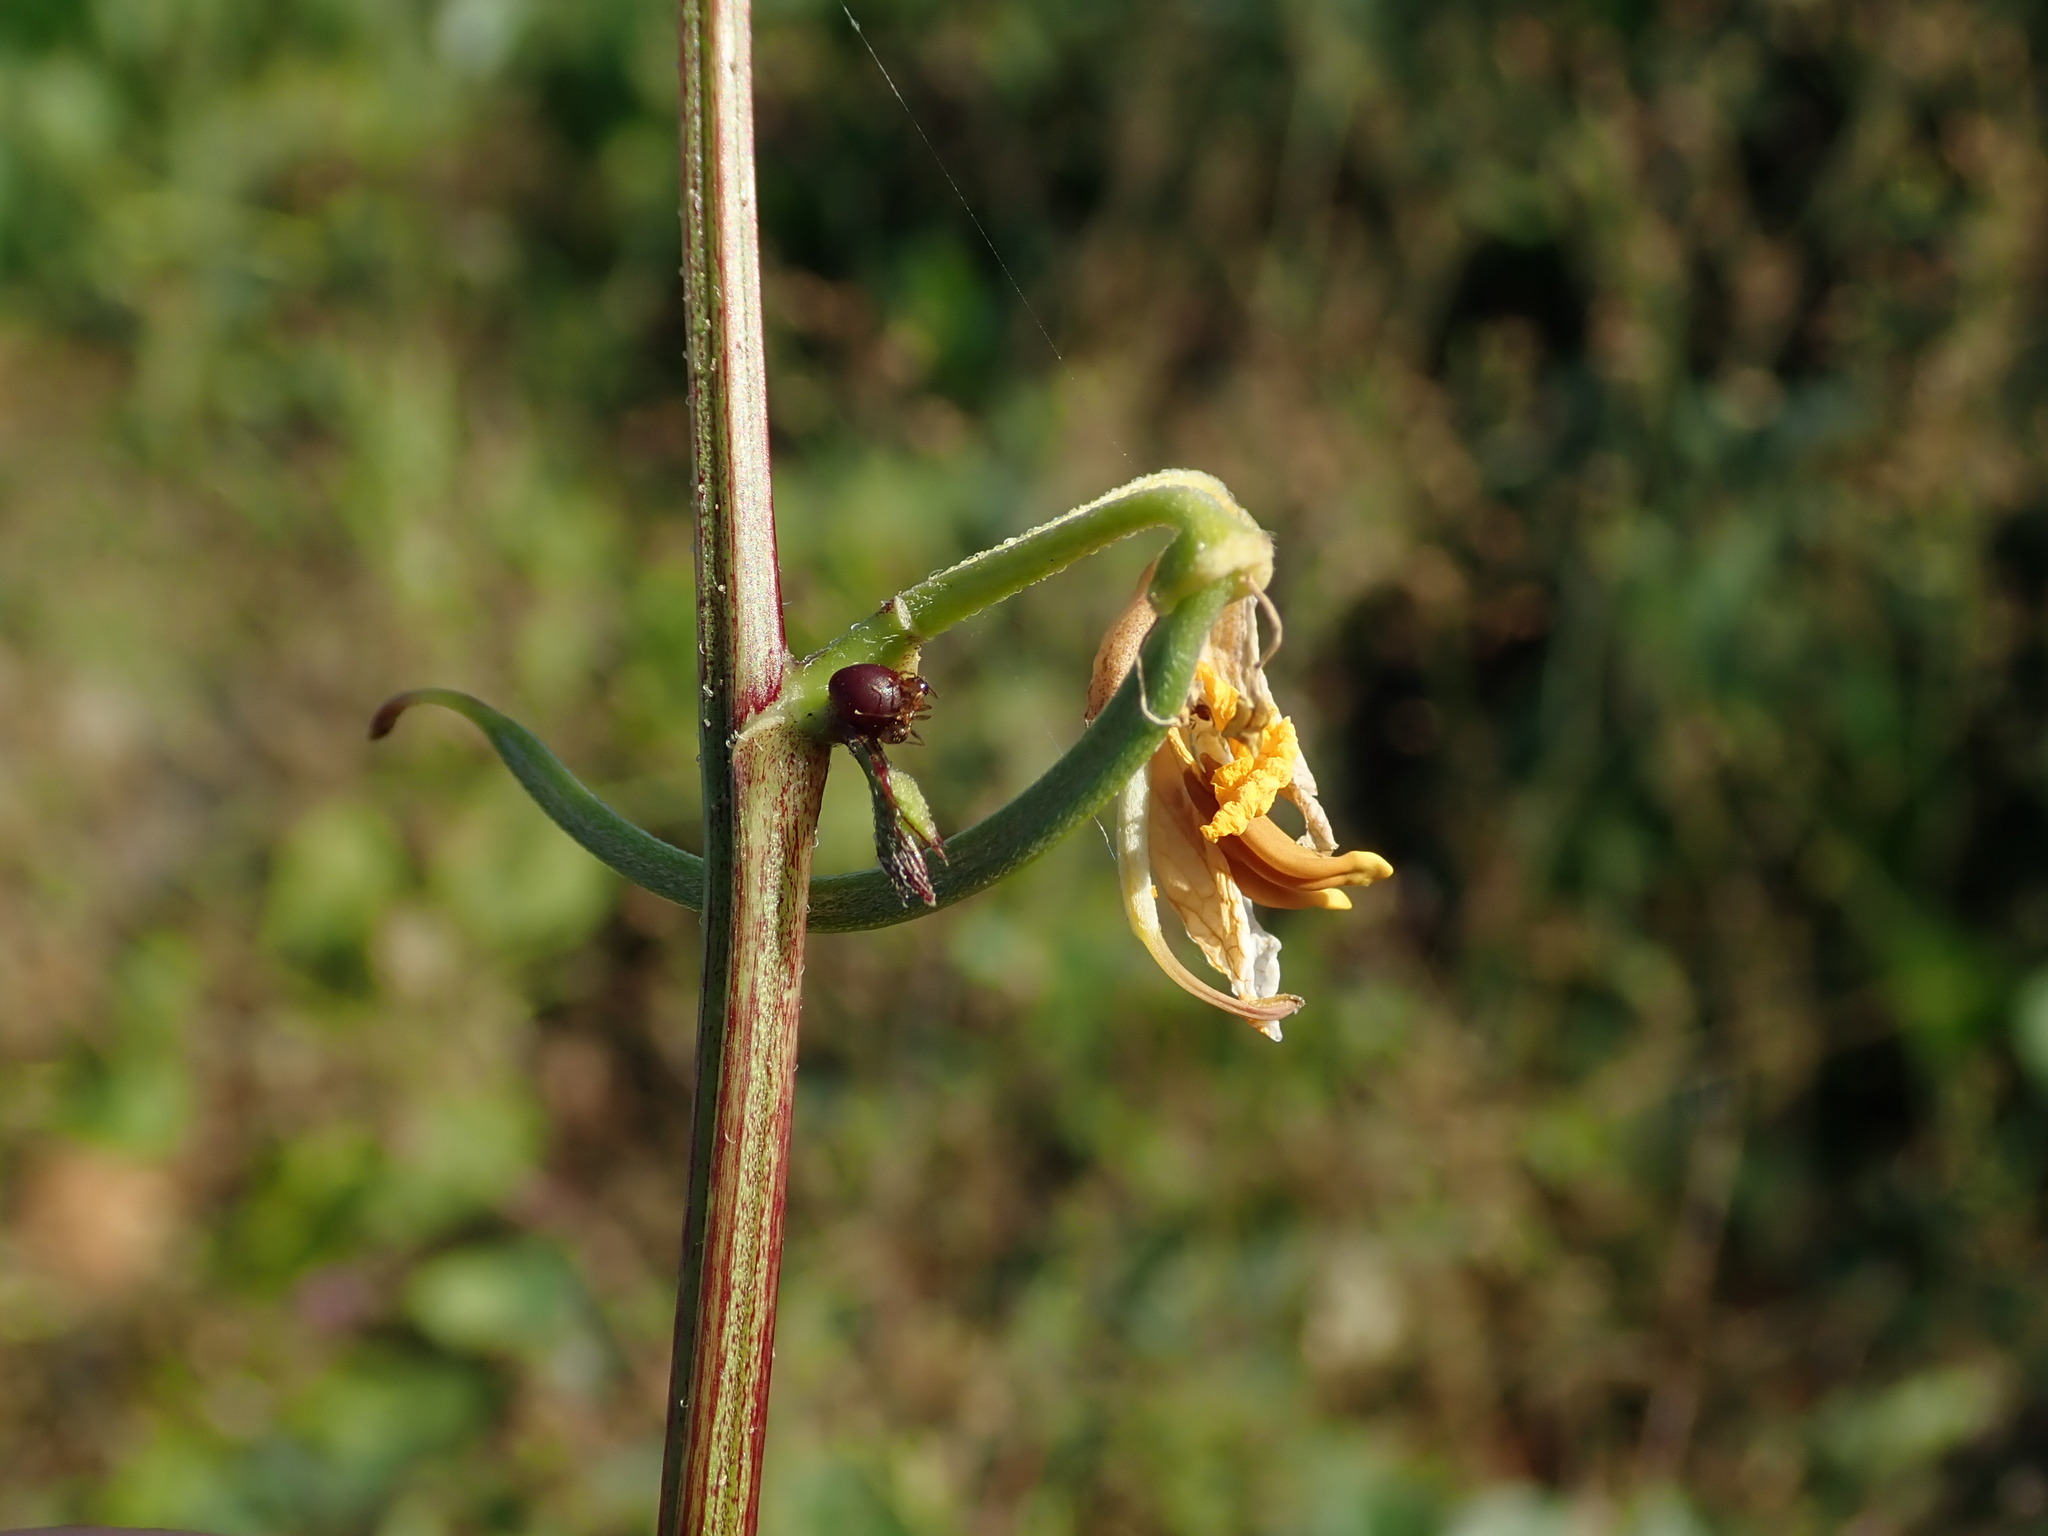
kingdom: Plantae
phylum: Tracheophyta
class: Magnoliopsida
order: Fabales
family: Fabaceae
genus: Senna
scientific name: Senna occidentalis
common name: Septicweed
